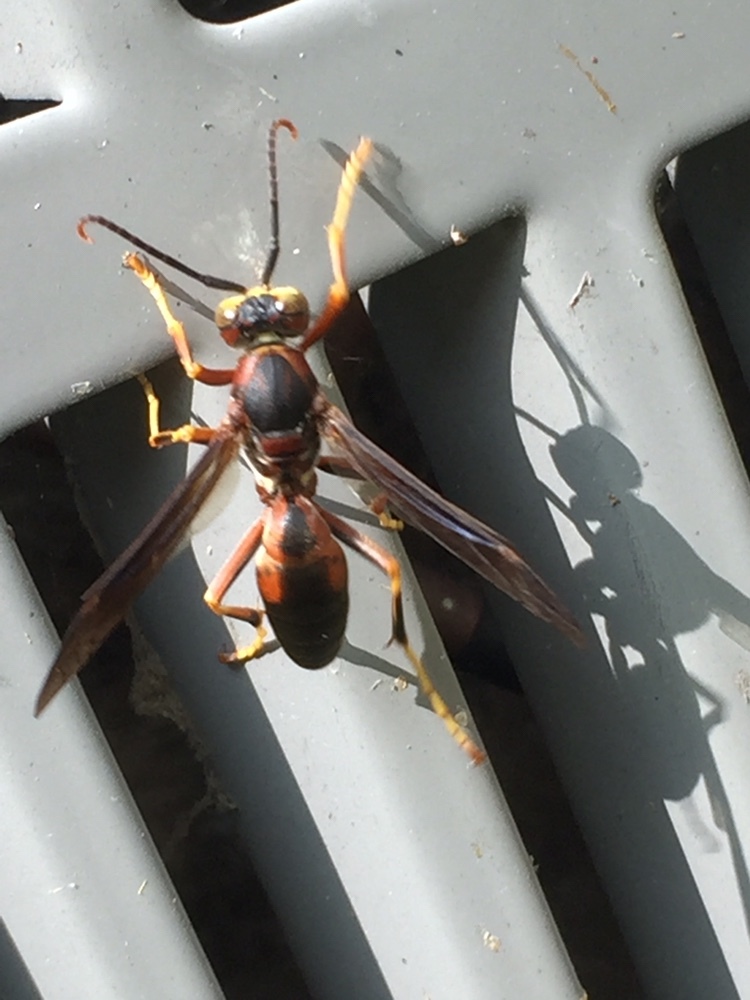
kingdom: Animalia
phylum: Arthropoda
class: Insecta
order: Hymenoptera
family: Eumenidae
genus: Polistes
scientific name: Polistes fuscatus
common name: Dark paper wasp
